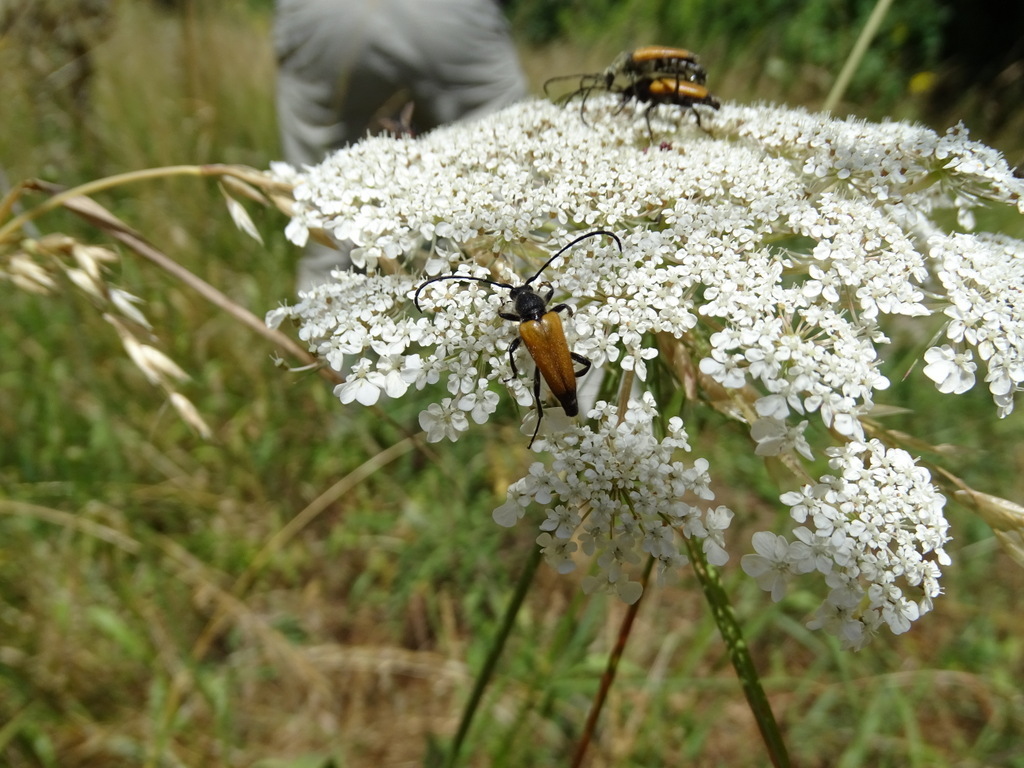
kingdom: Animalia
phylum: Arthropoda
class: Insecta
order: Coleoptera
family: Cerambycidae
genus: Paracorymbia
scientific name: Paracorymbia fulva
